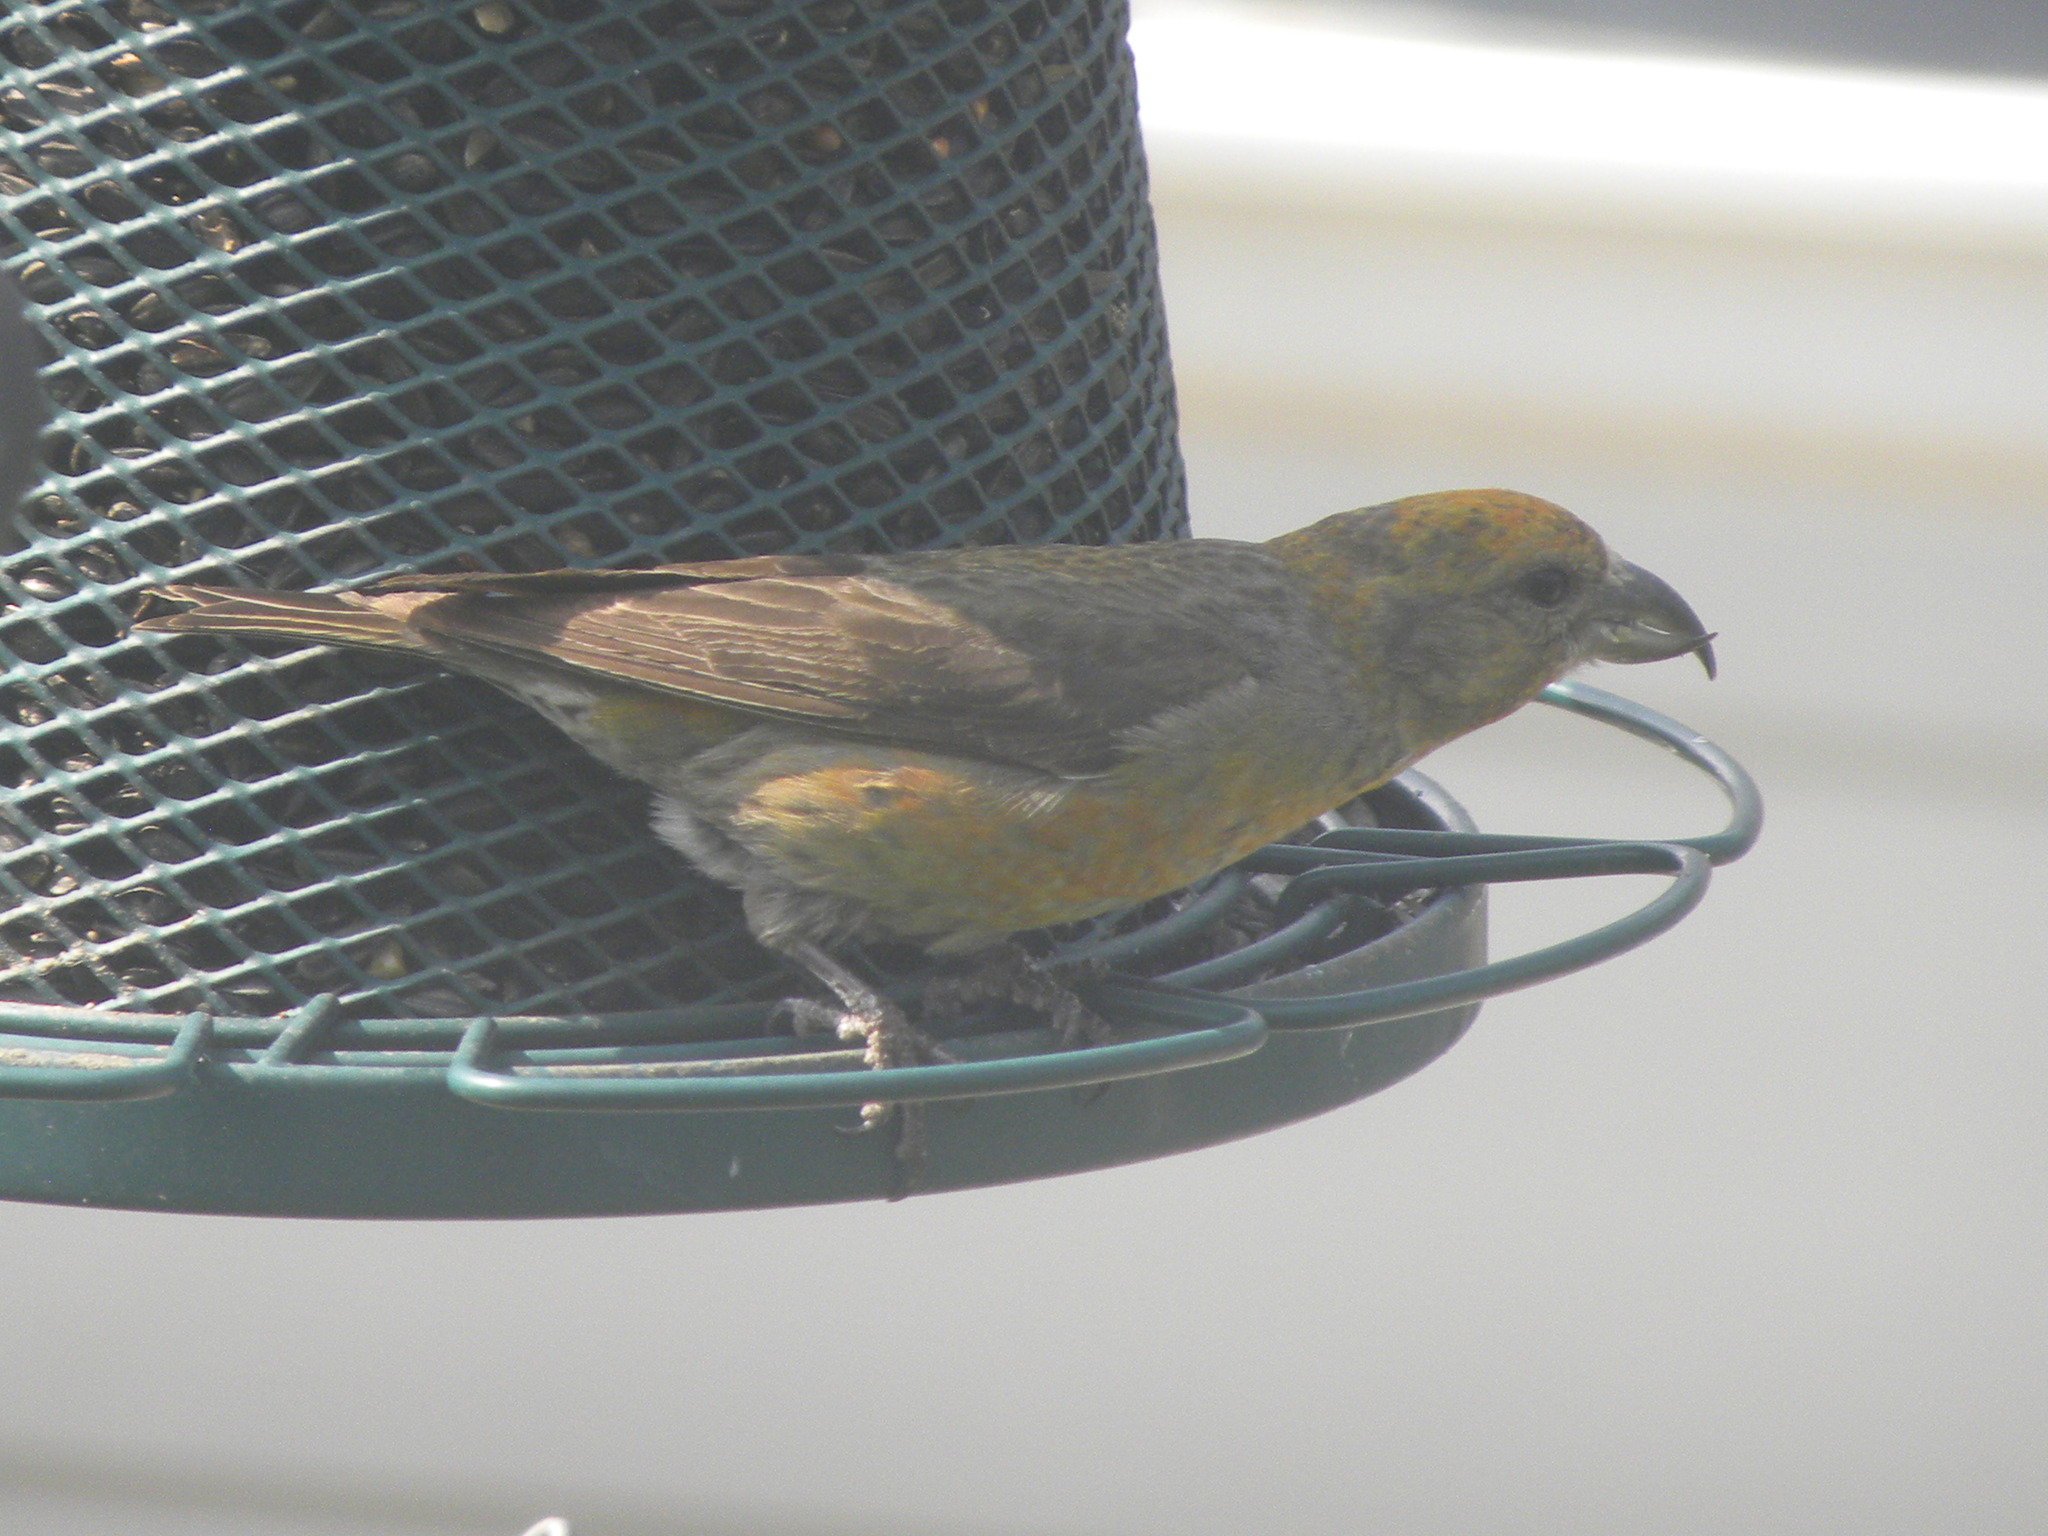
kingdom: Animalia
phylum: Chordata
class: Aves
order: Passeriformes
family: Fringillidae
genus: Loxia
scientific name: Loxia curvirostra
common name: Red crossbill
